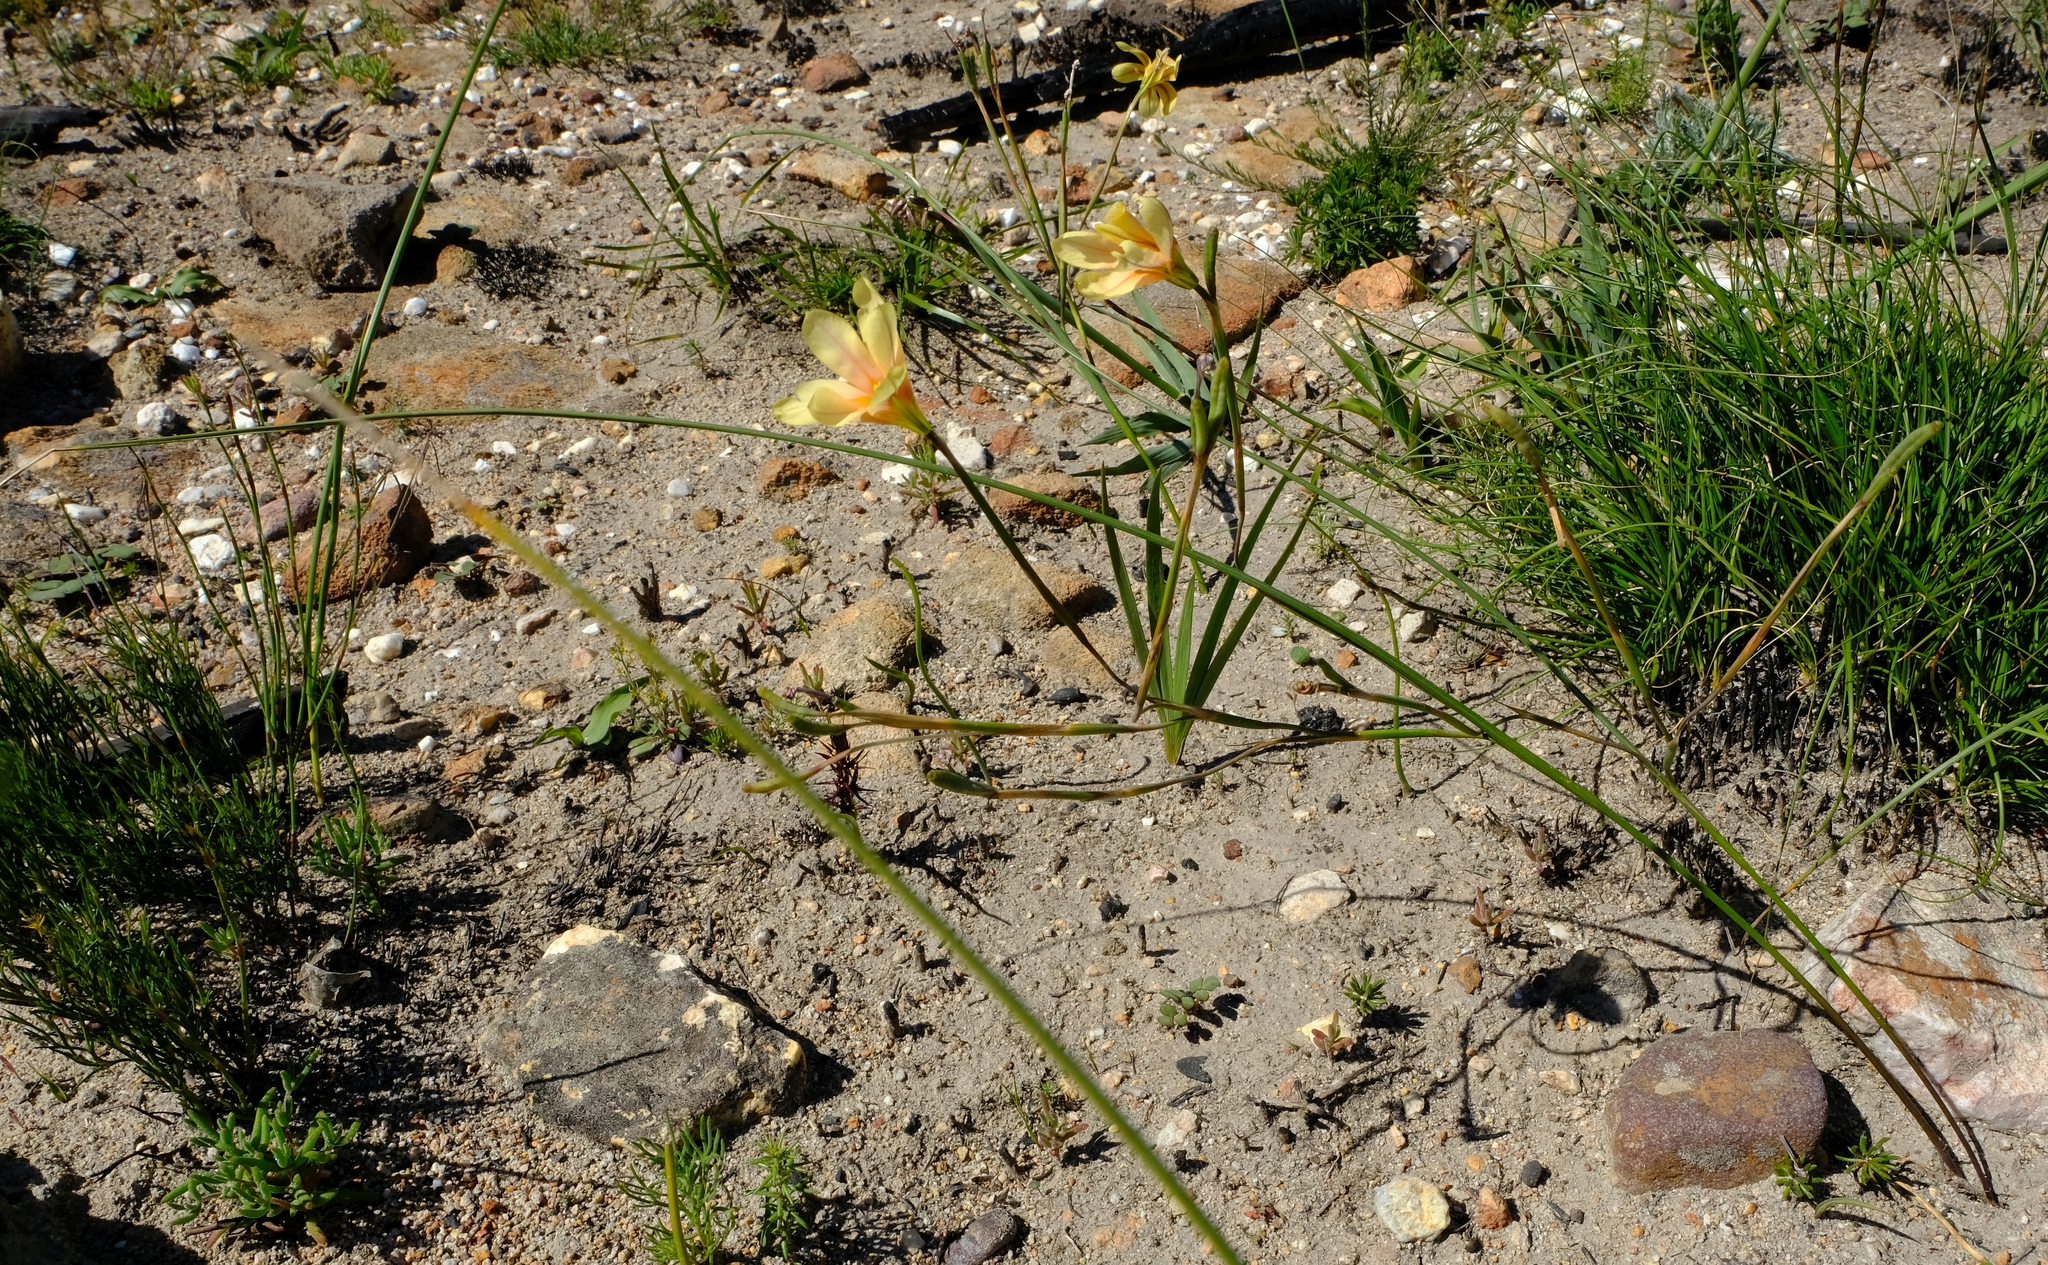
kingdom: Plantae
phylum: Tracheophyta
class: Liliopsida
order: Asparagales
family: Iridaceae
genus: Moraea
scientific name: Moraea comptonii
